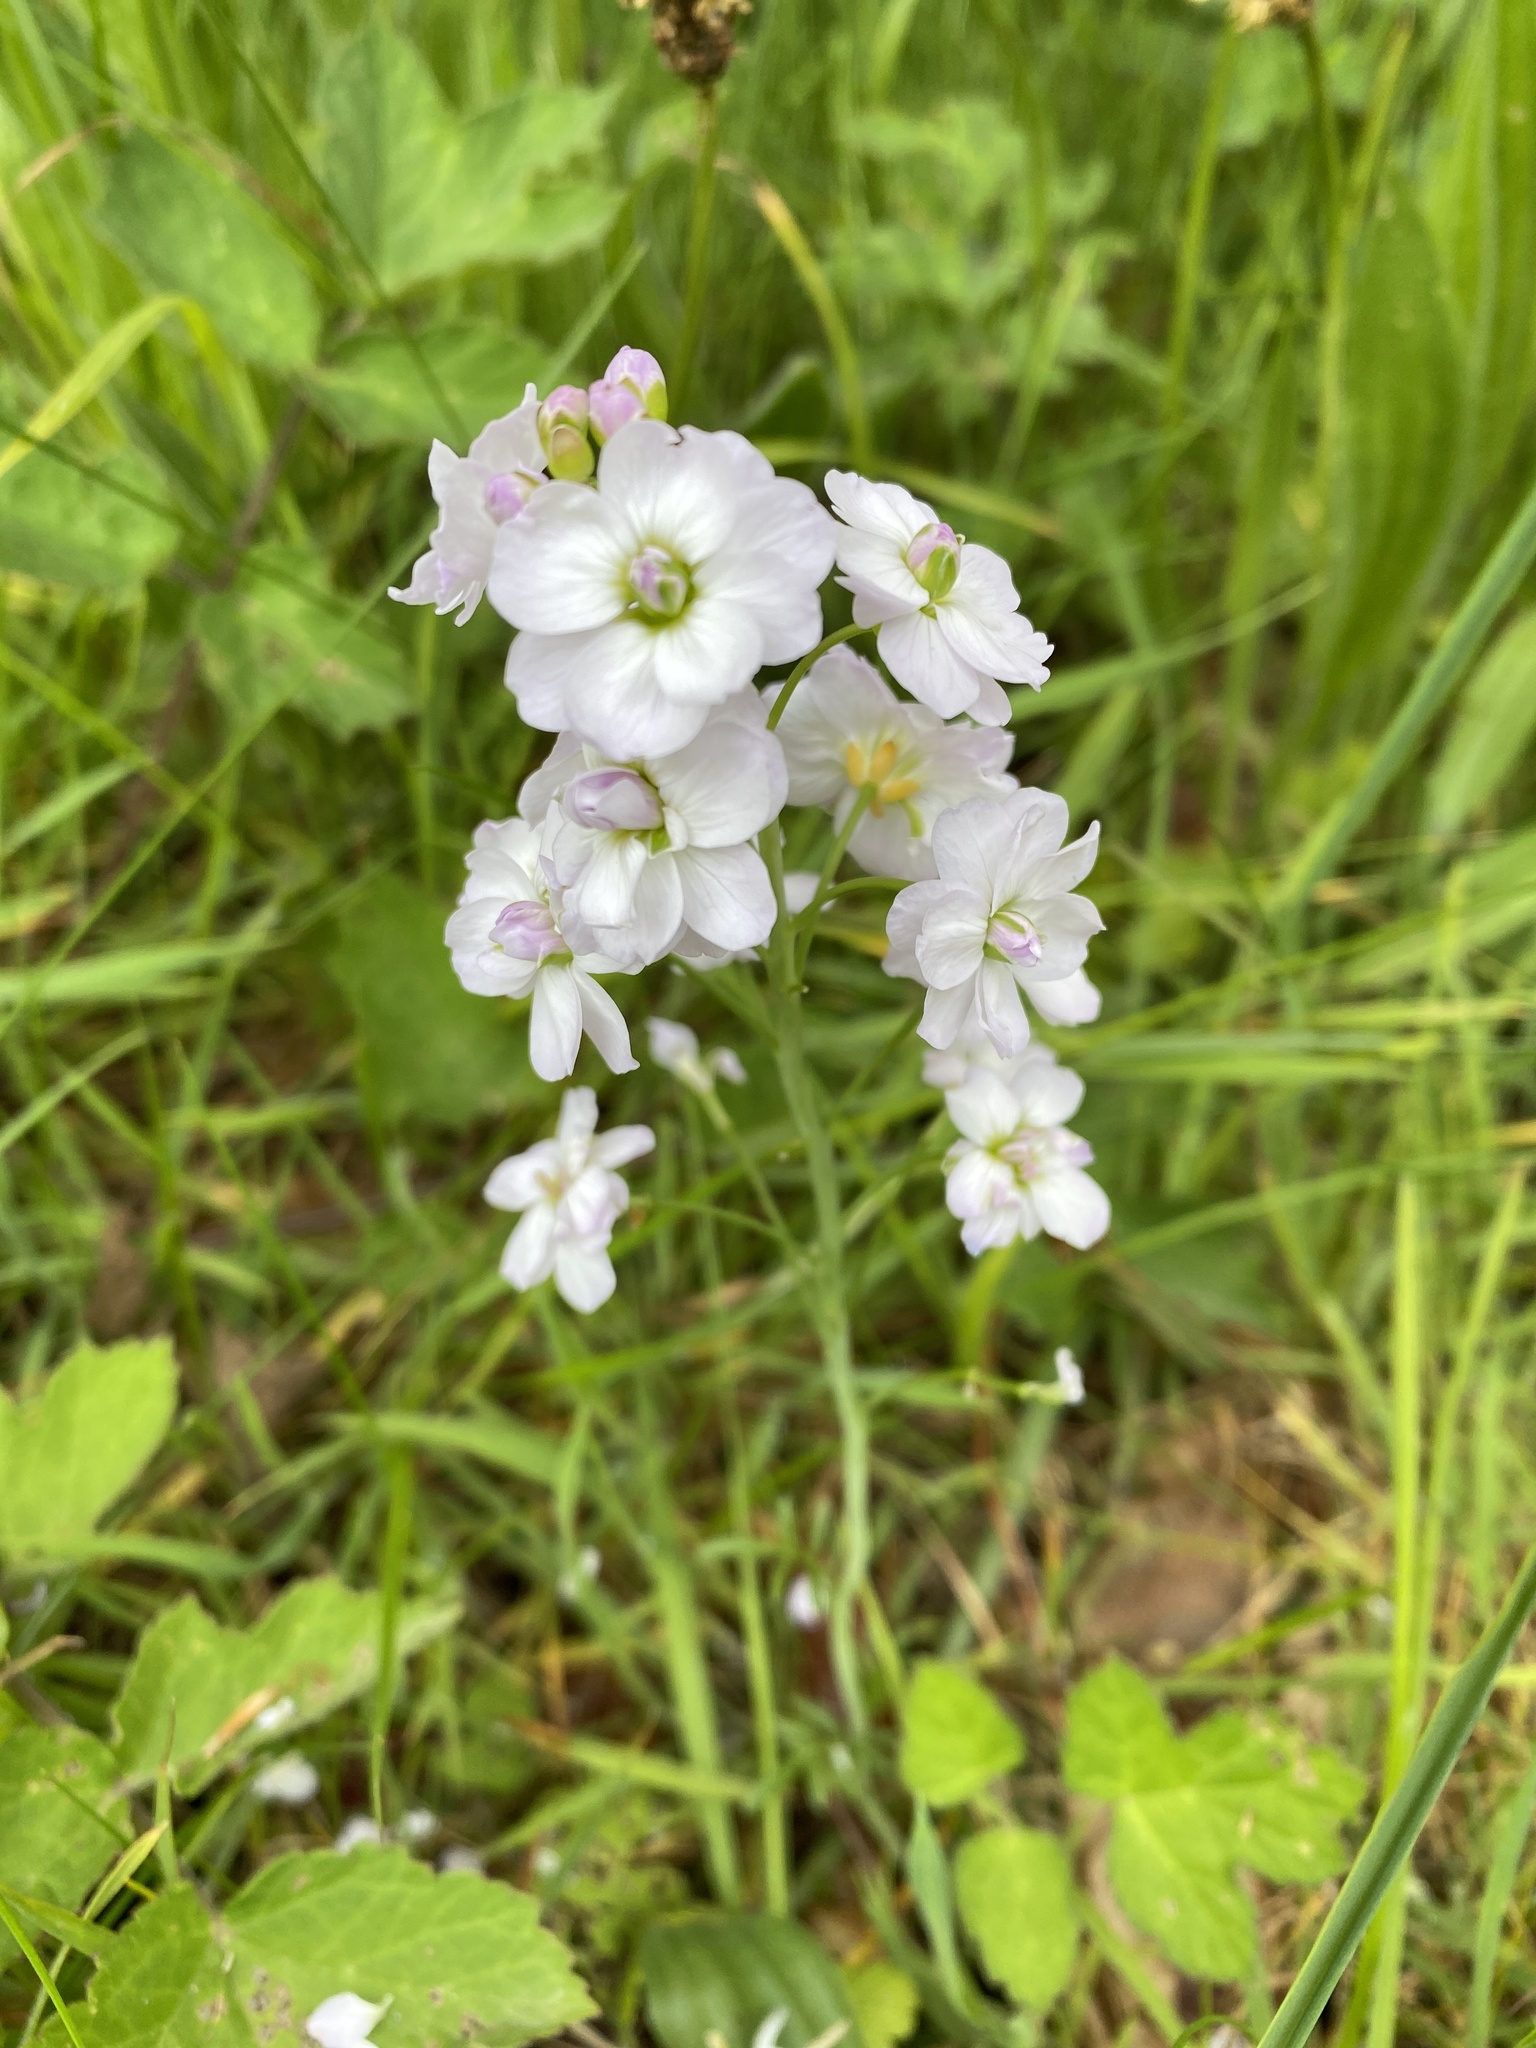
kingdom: Plantae
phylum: Tracheophyta
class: Magnoliopsida
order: Brassicales
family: Brassicaceae
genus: Cardamine
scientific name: Cardamine pratensis
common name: Cuckoo flower
